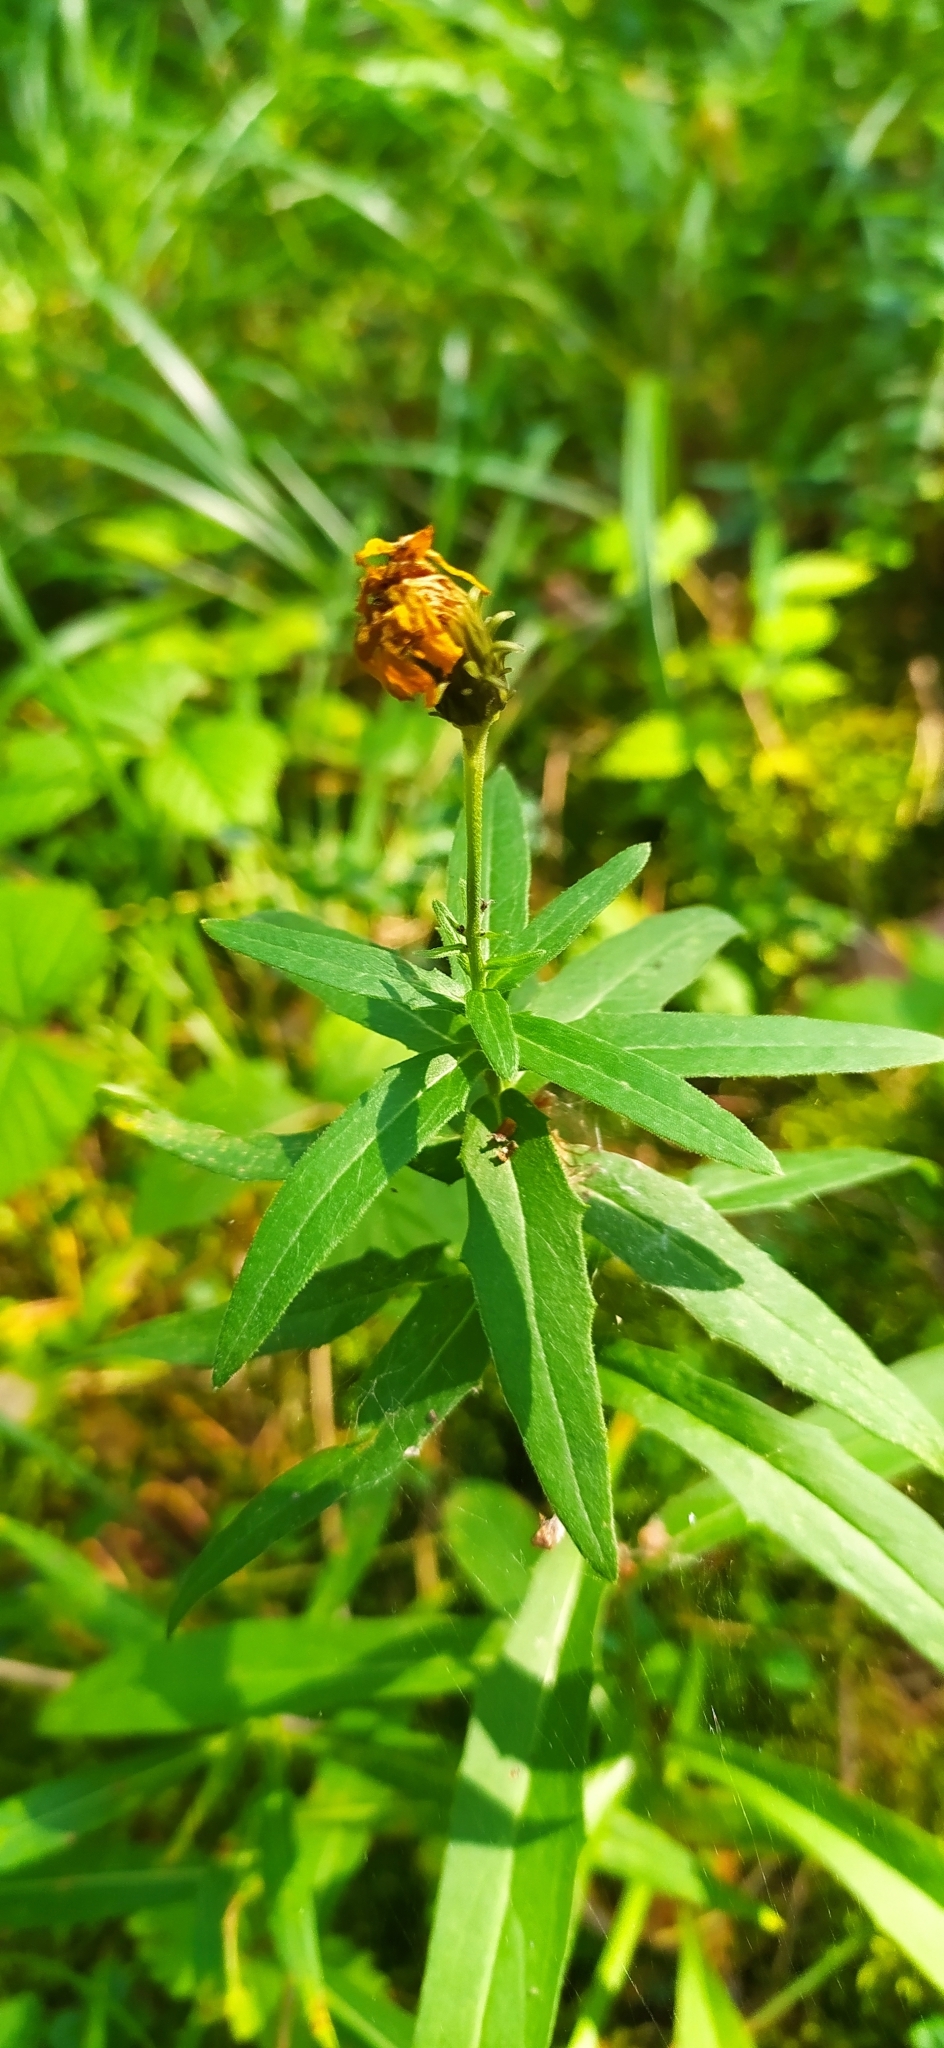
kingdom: Plantae
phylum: Tracheophyta
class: Magnoliopsida
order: Asterales
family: Asteraceae
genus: Hieracium
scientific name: Hieracium umbellatum
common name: Northern hawkweed
